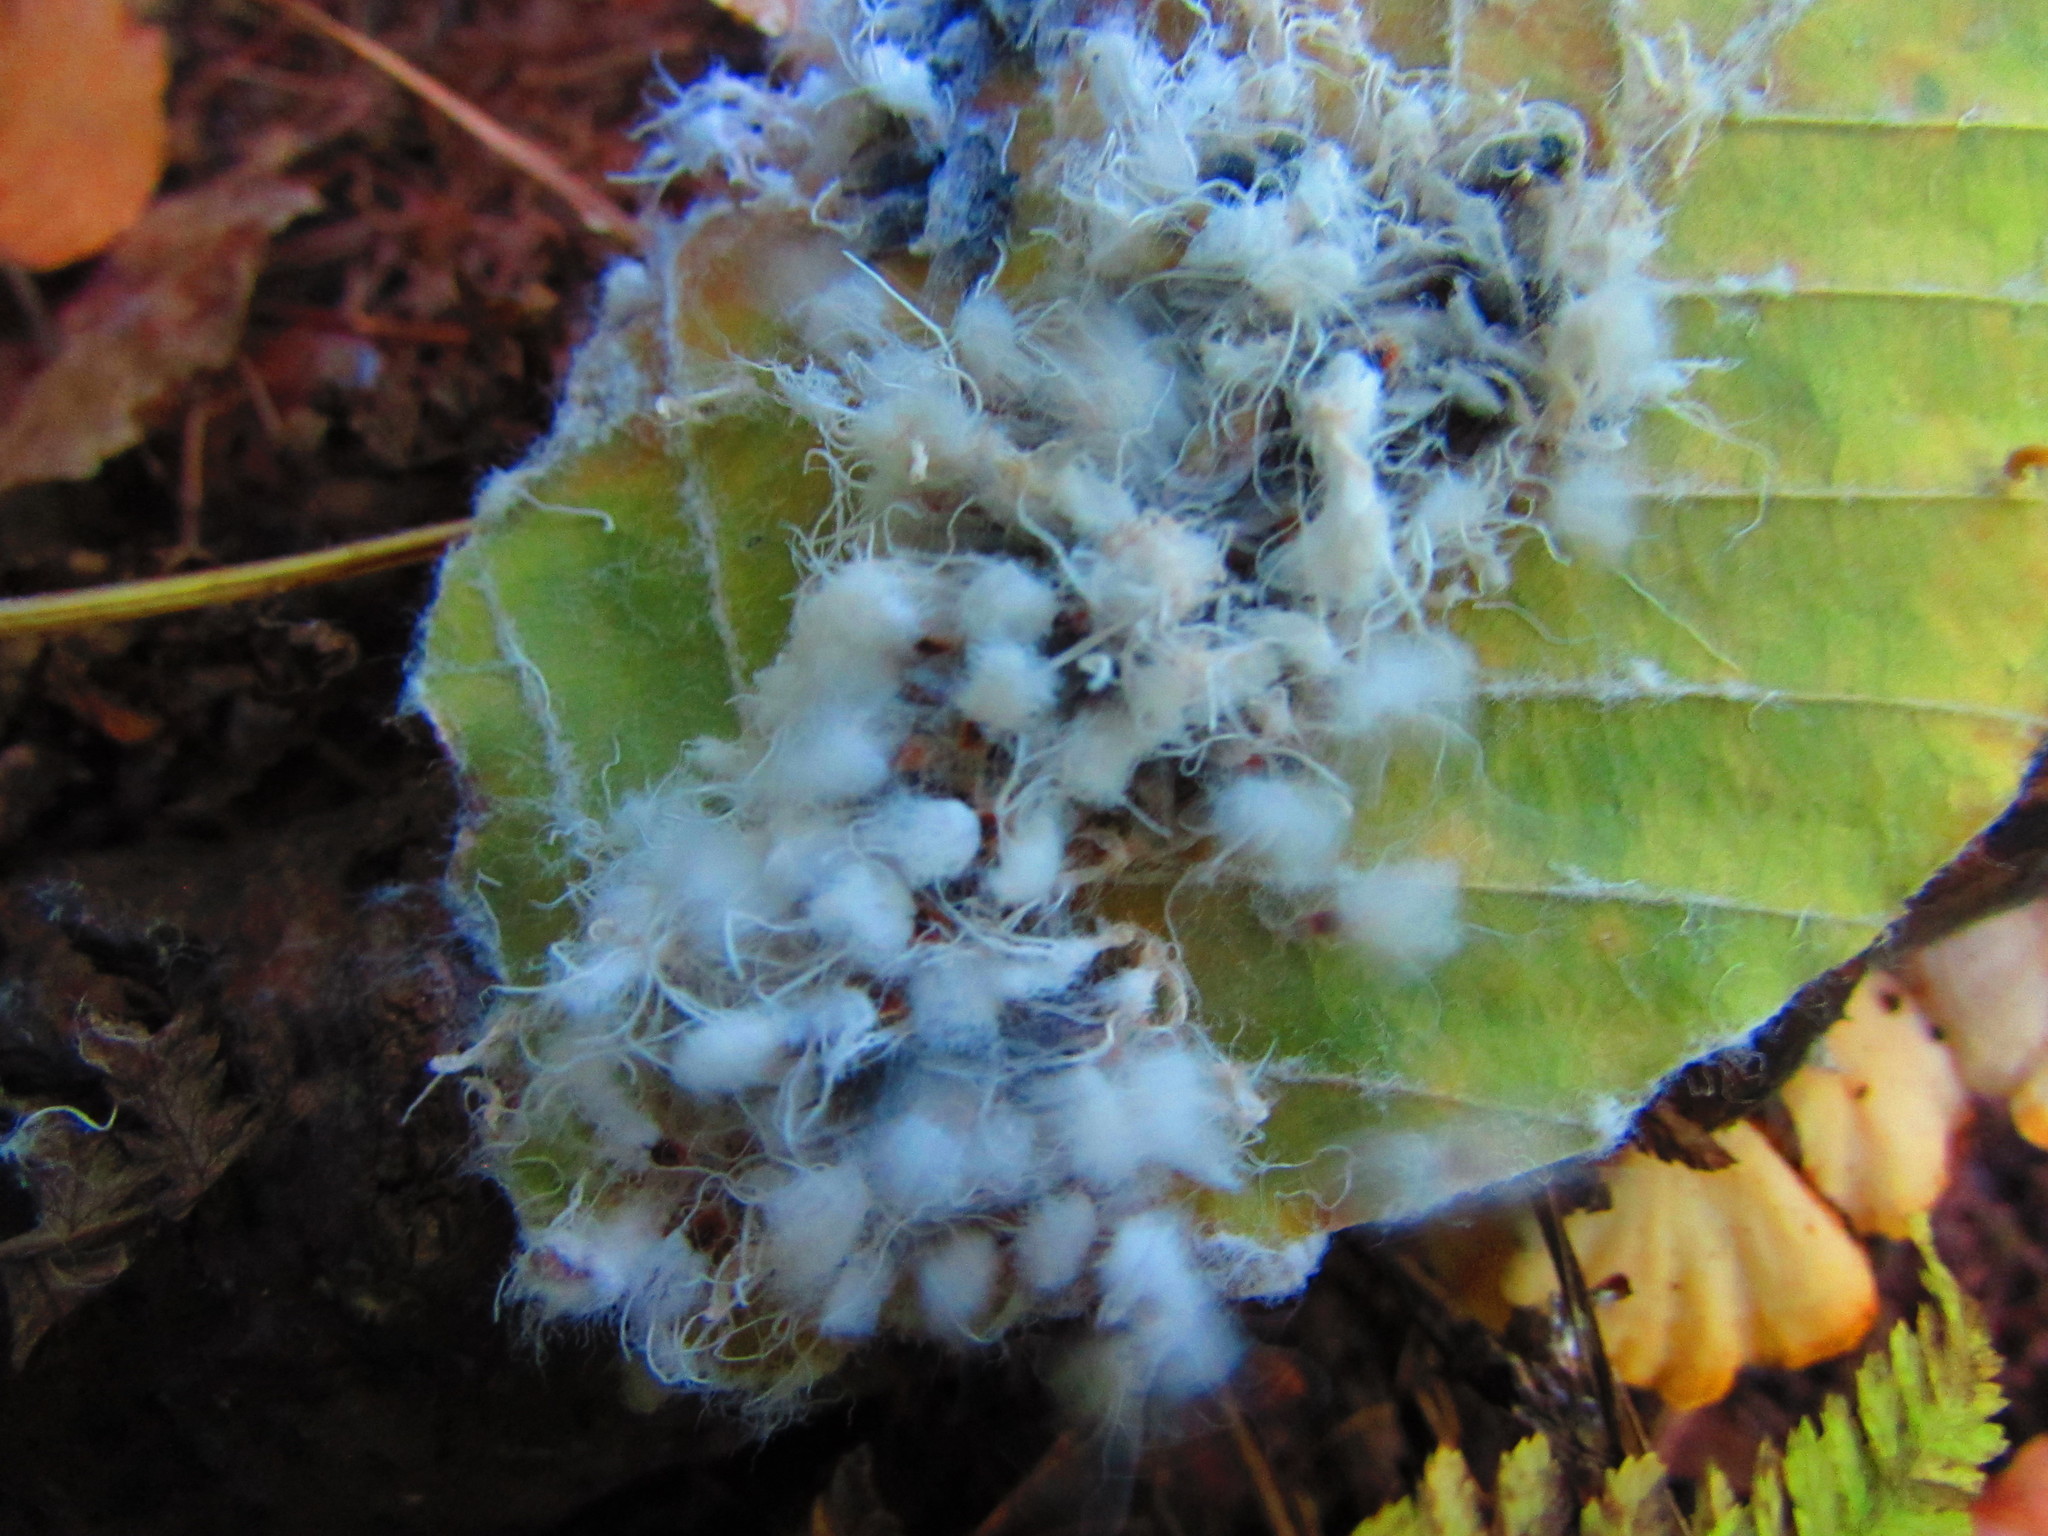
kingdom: Animalia
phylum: Arthropoda
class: Insecta
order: Hemiptera
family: Aphididae
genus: Grylloprociphilus
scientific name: Grylloprociphilus imbricator
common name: Beech blight aphid
